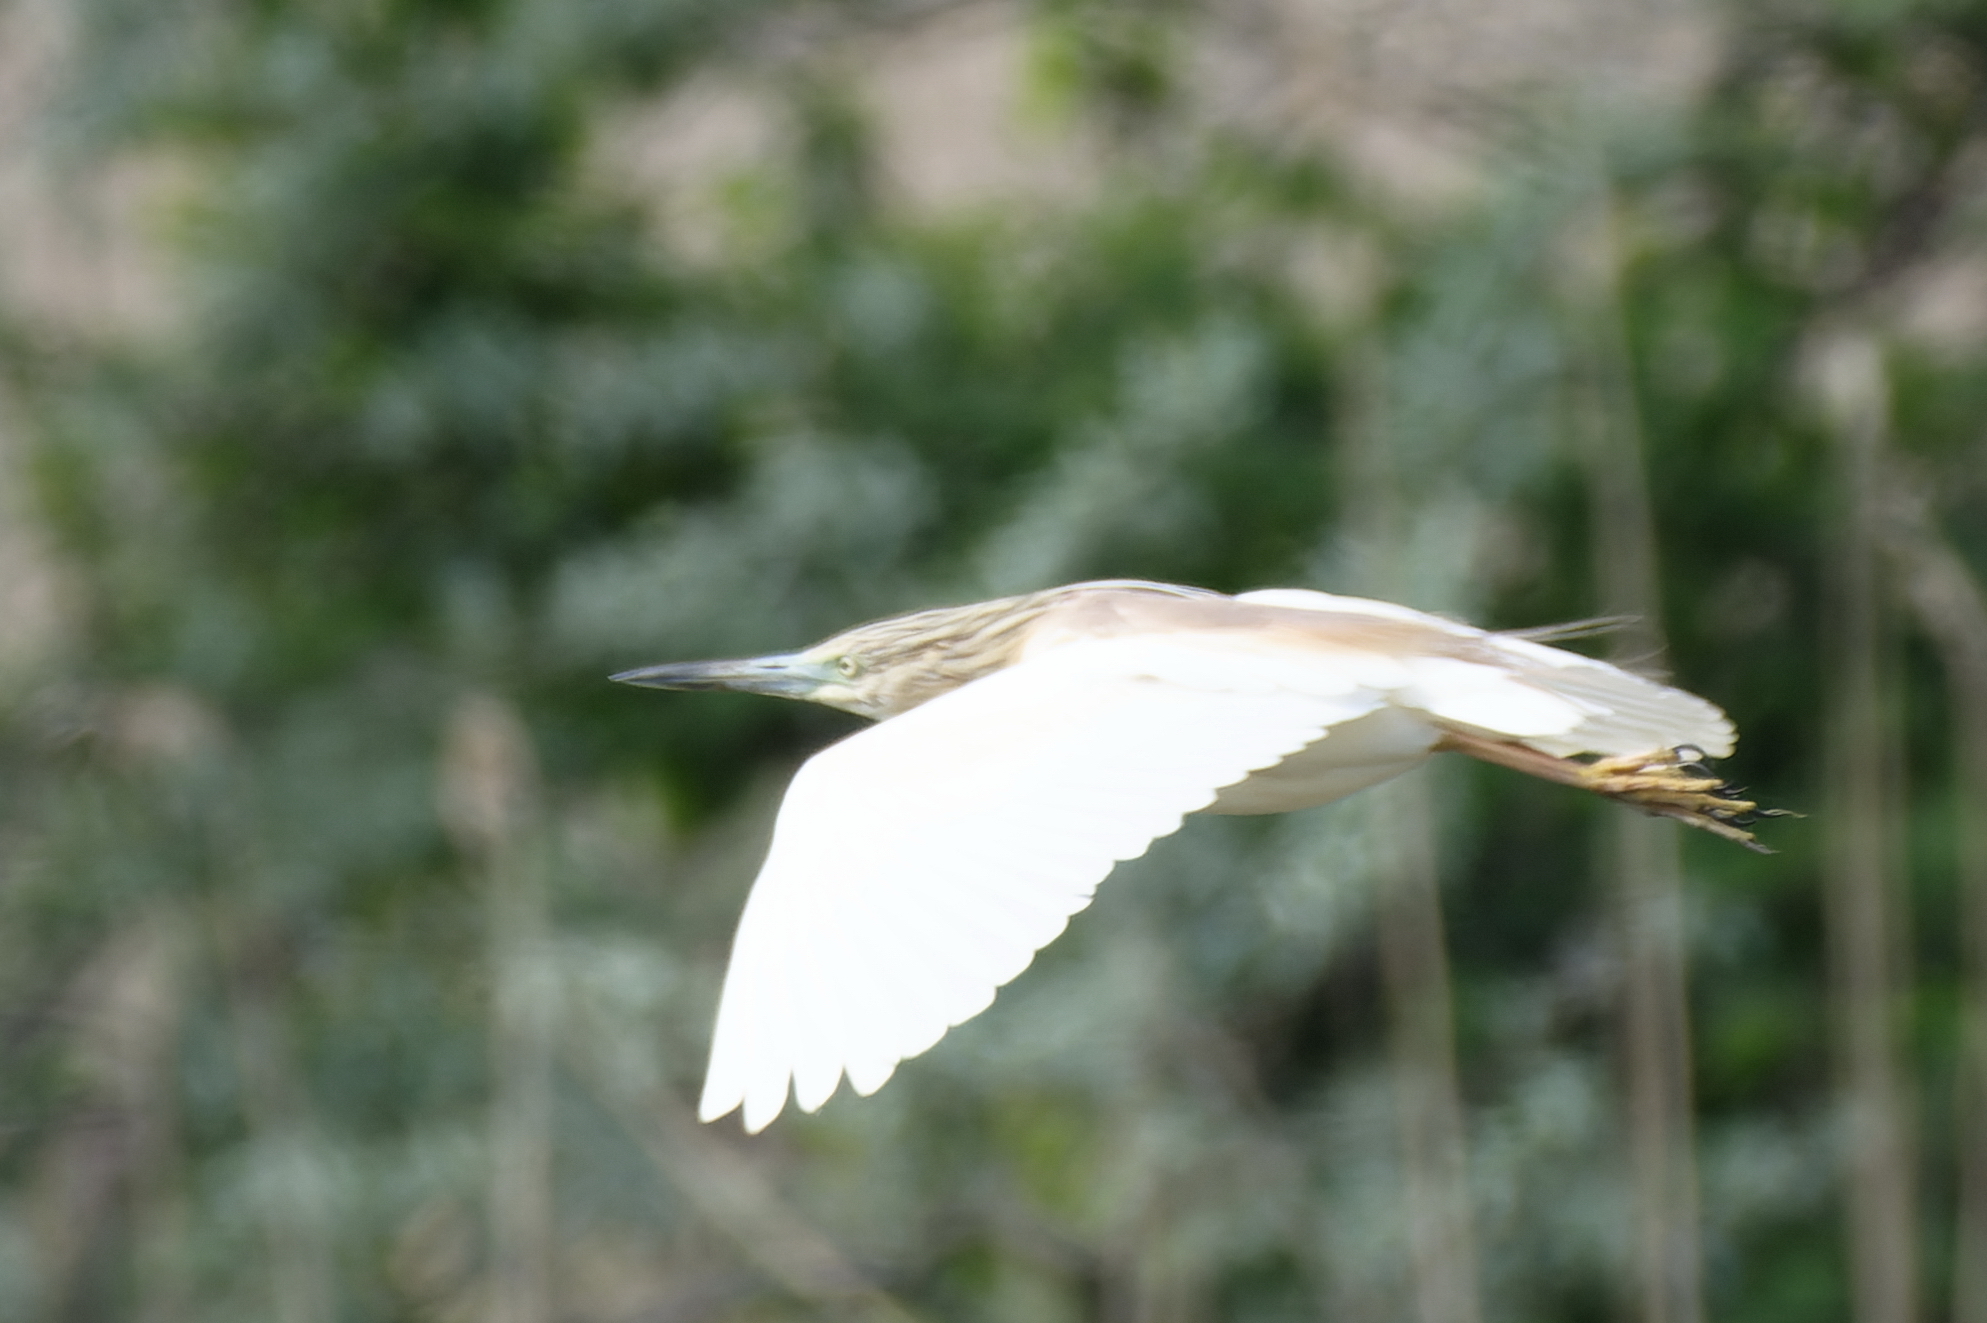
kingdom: Animalia
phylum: Chordata
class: Aves
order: Pelecaniformes
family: Ardeidae
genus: Ardeola
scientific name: Ardeola ralloides
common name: Squacco heron
